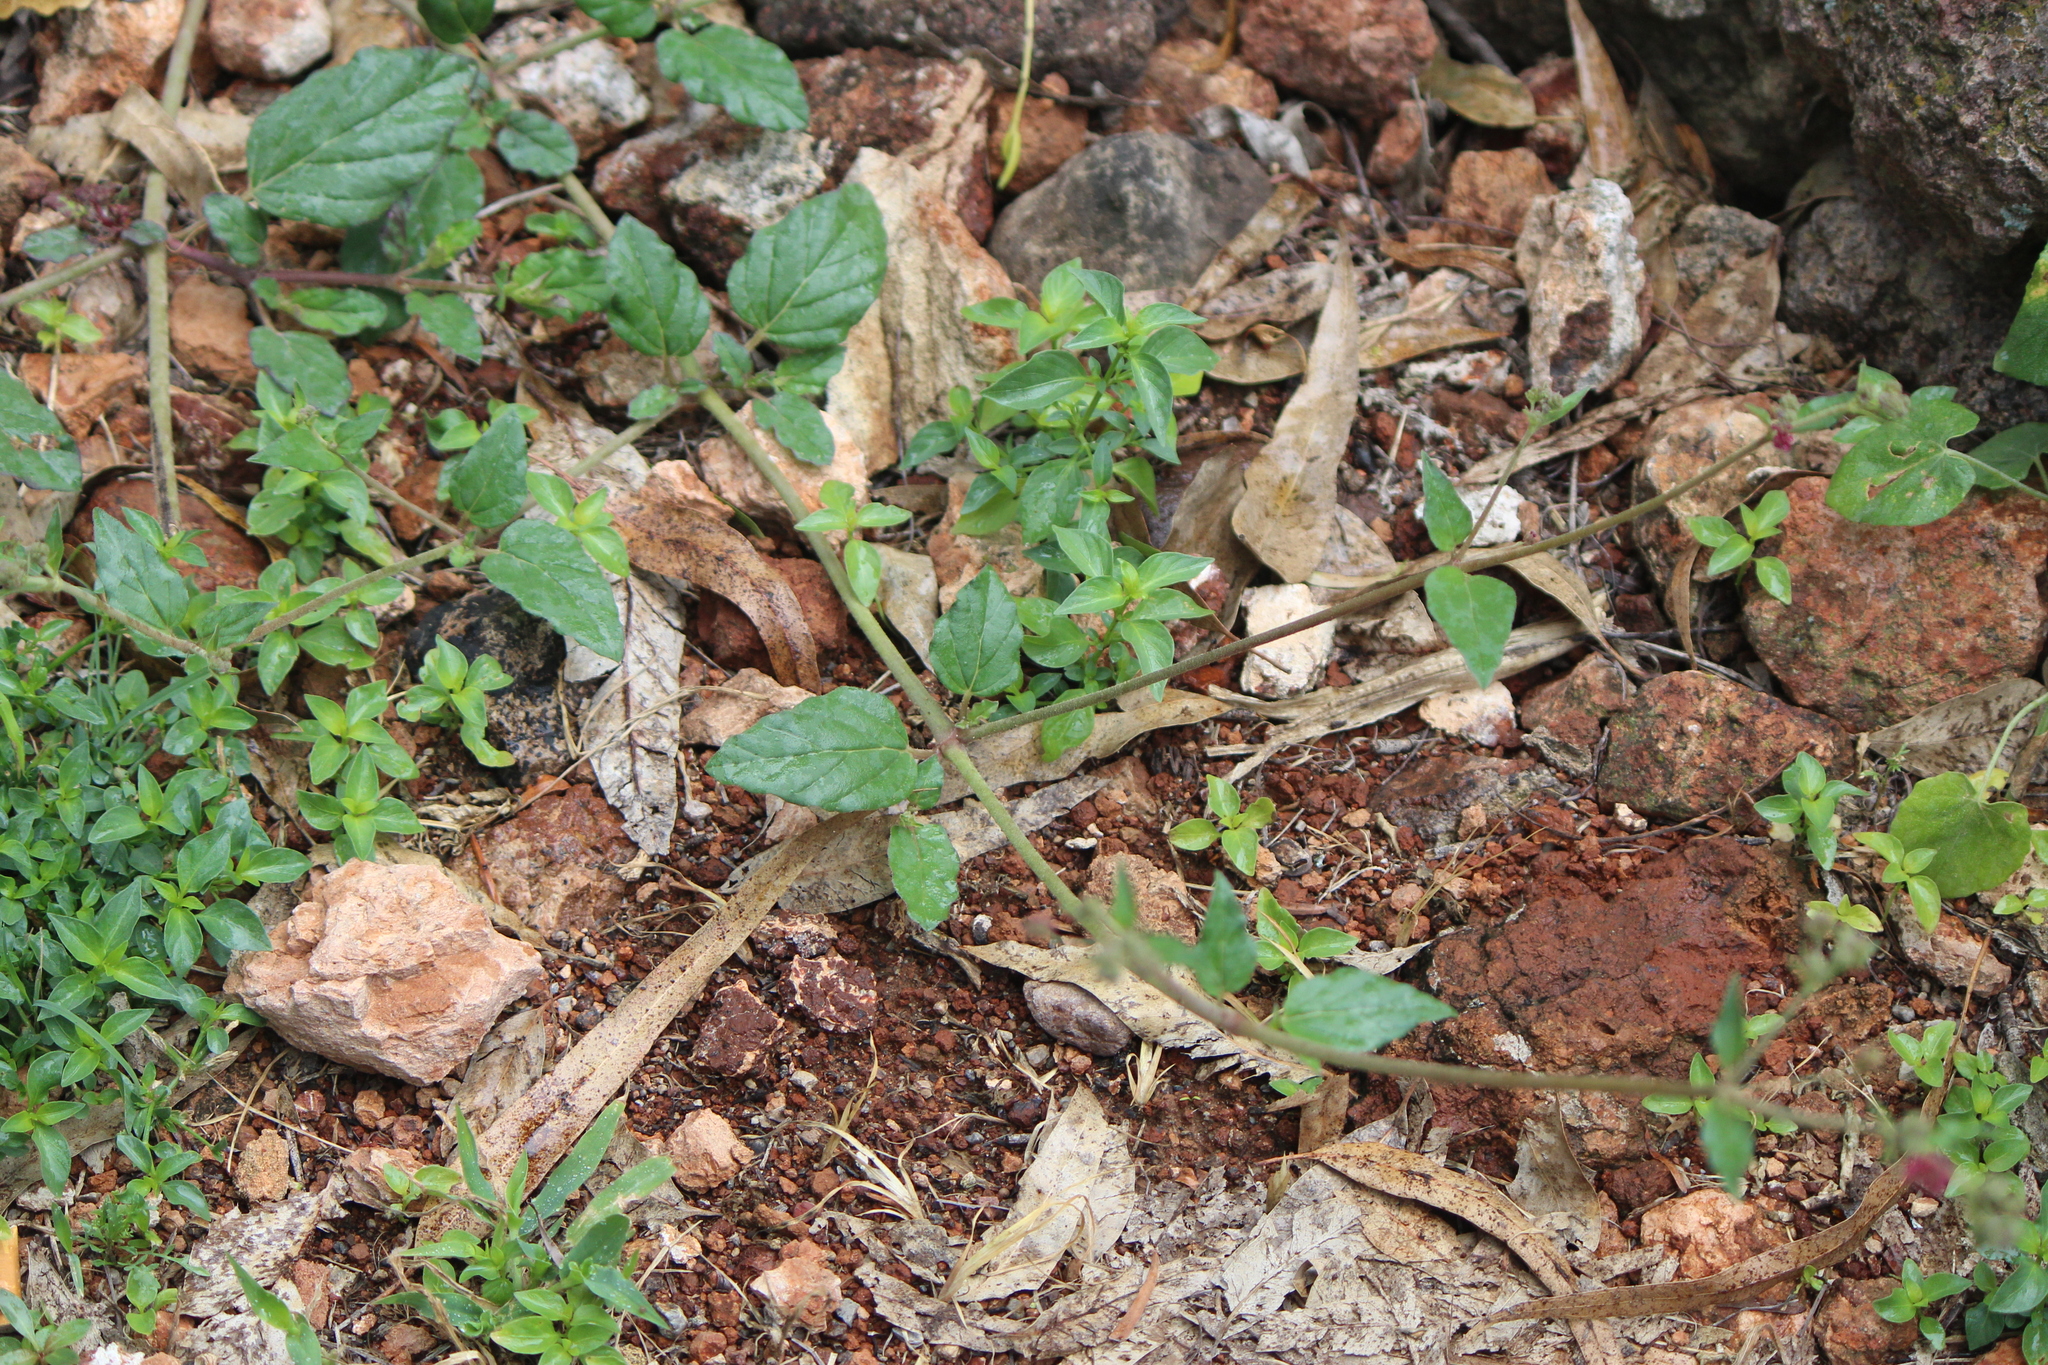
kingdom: Plantae
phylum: Tracheophyta
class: Magnoliopsida
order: Caryophyllales
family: Nyctaginaceae
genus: Boerhavia
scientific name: Boerhavia coccinea
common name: Scarlet spiderling
